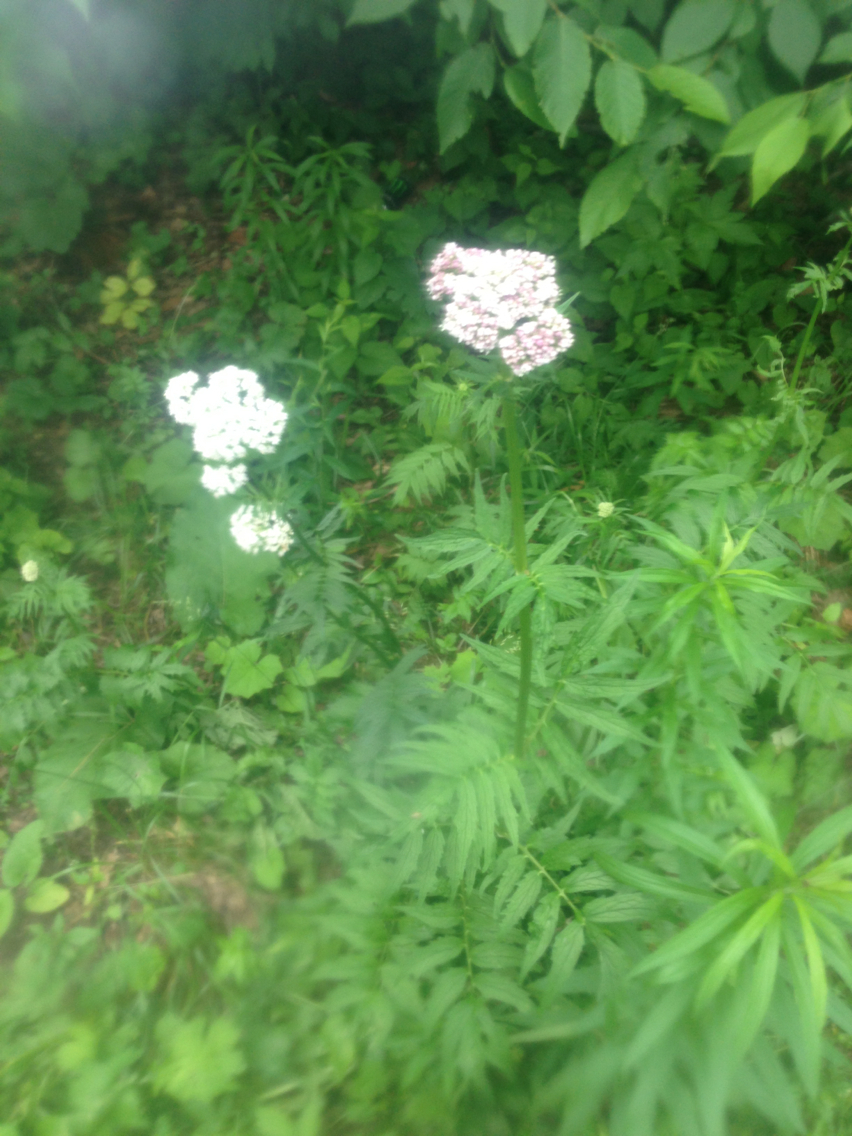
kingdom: Plantae
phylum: Tracheophyta
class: Magnoliopsida
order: Dipsacales
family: Caprifoliaceae
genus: Valeriana
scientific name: Valeriana officinalis
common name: Common valerian
